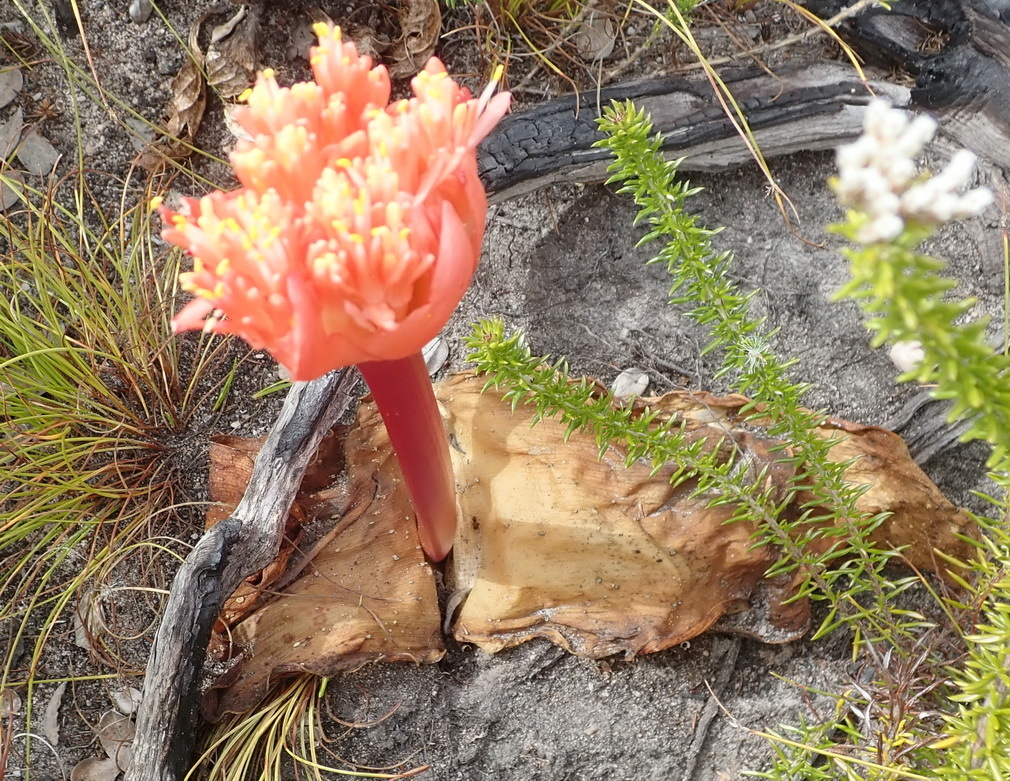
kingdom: Plantae
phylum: Tracheophyta
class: Liliopsida
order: Asparagales
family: Amaryllidaceae
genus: Haemanthus
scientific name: Haemanthus sanguineus
